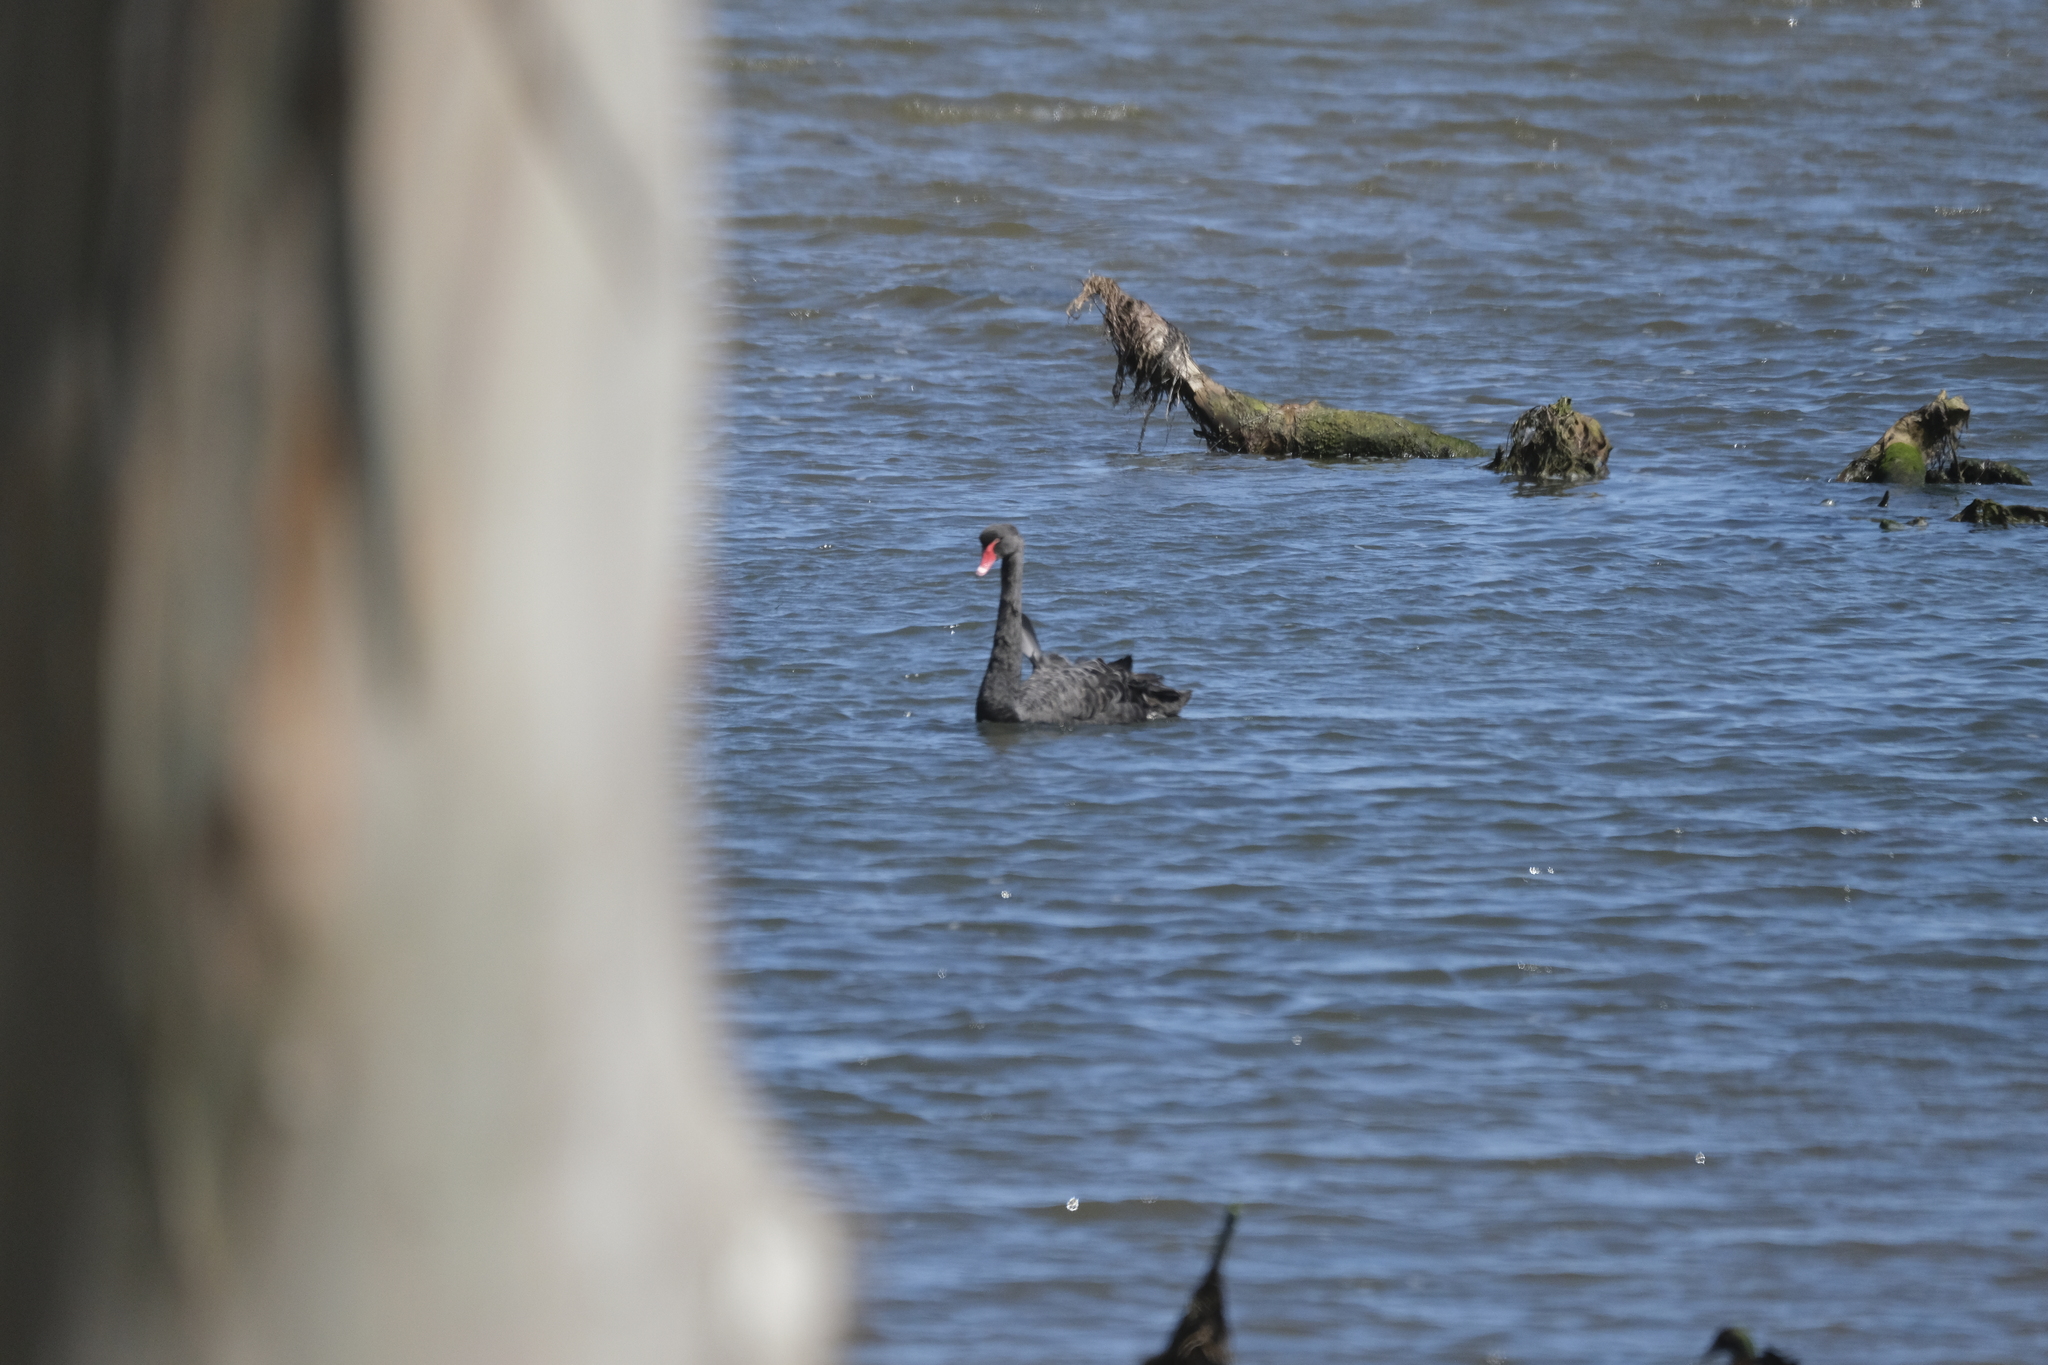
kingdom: Animalia
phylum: Chordata
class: Aves
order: Anseriformes
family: Anatidae
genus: Cygnus
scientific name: Cygnus atratus
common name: Black swan
